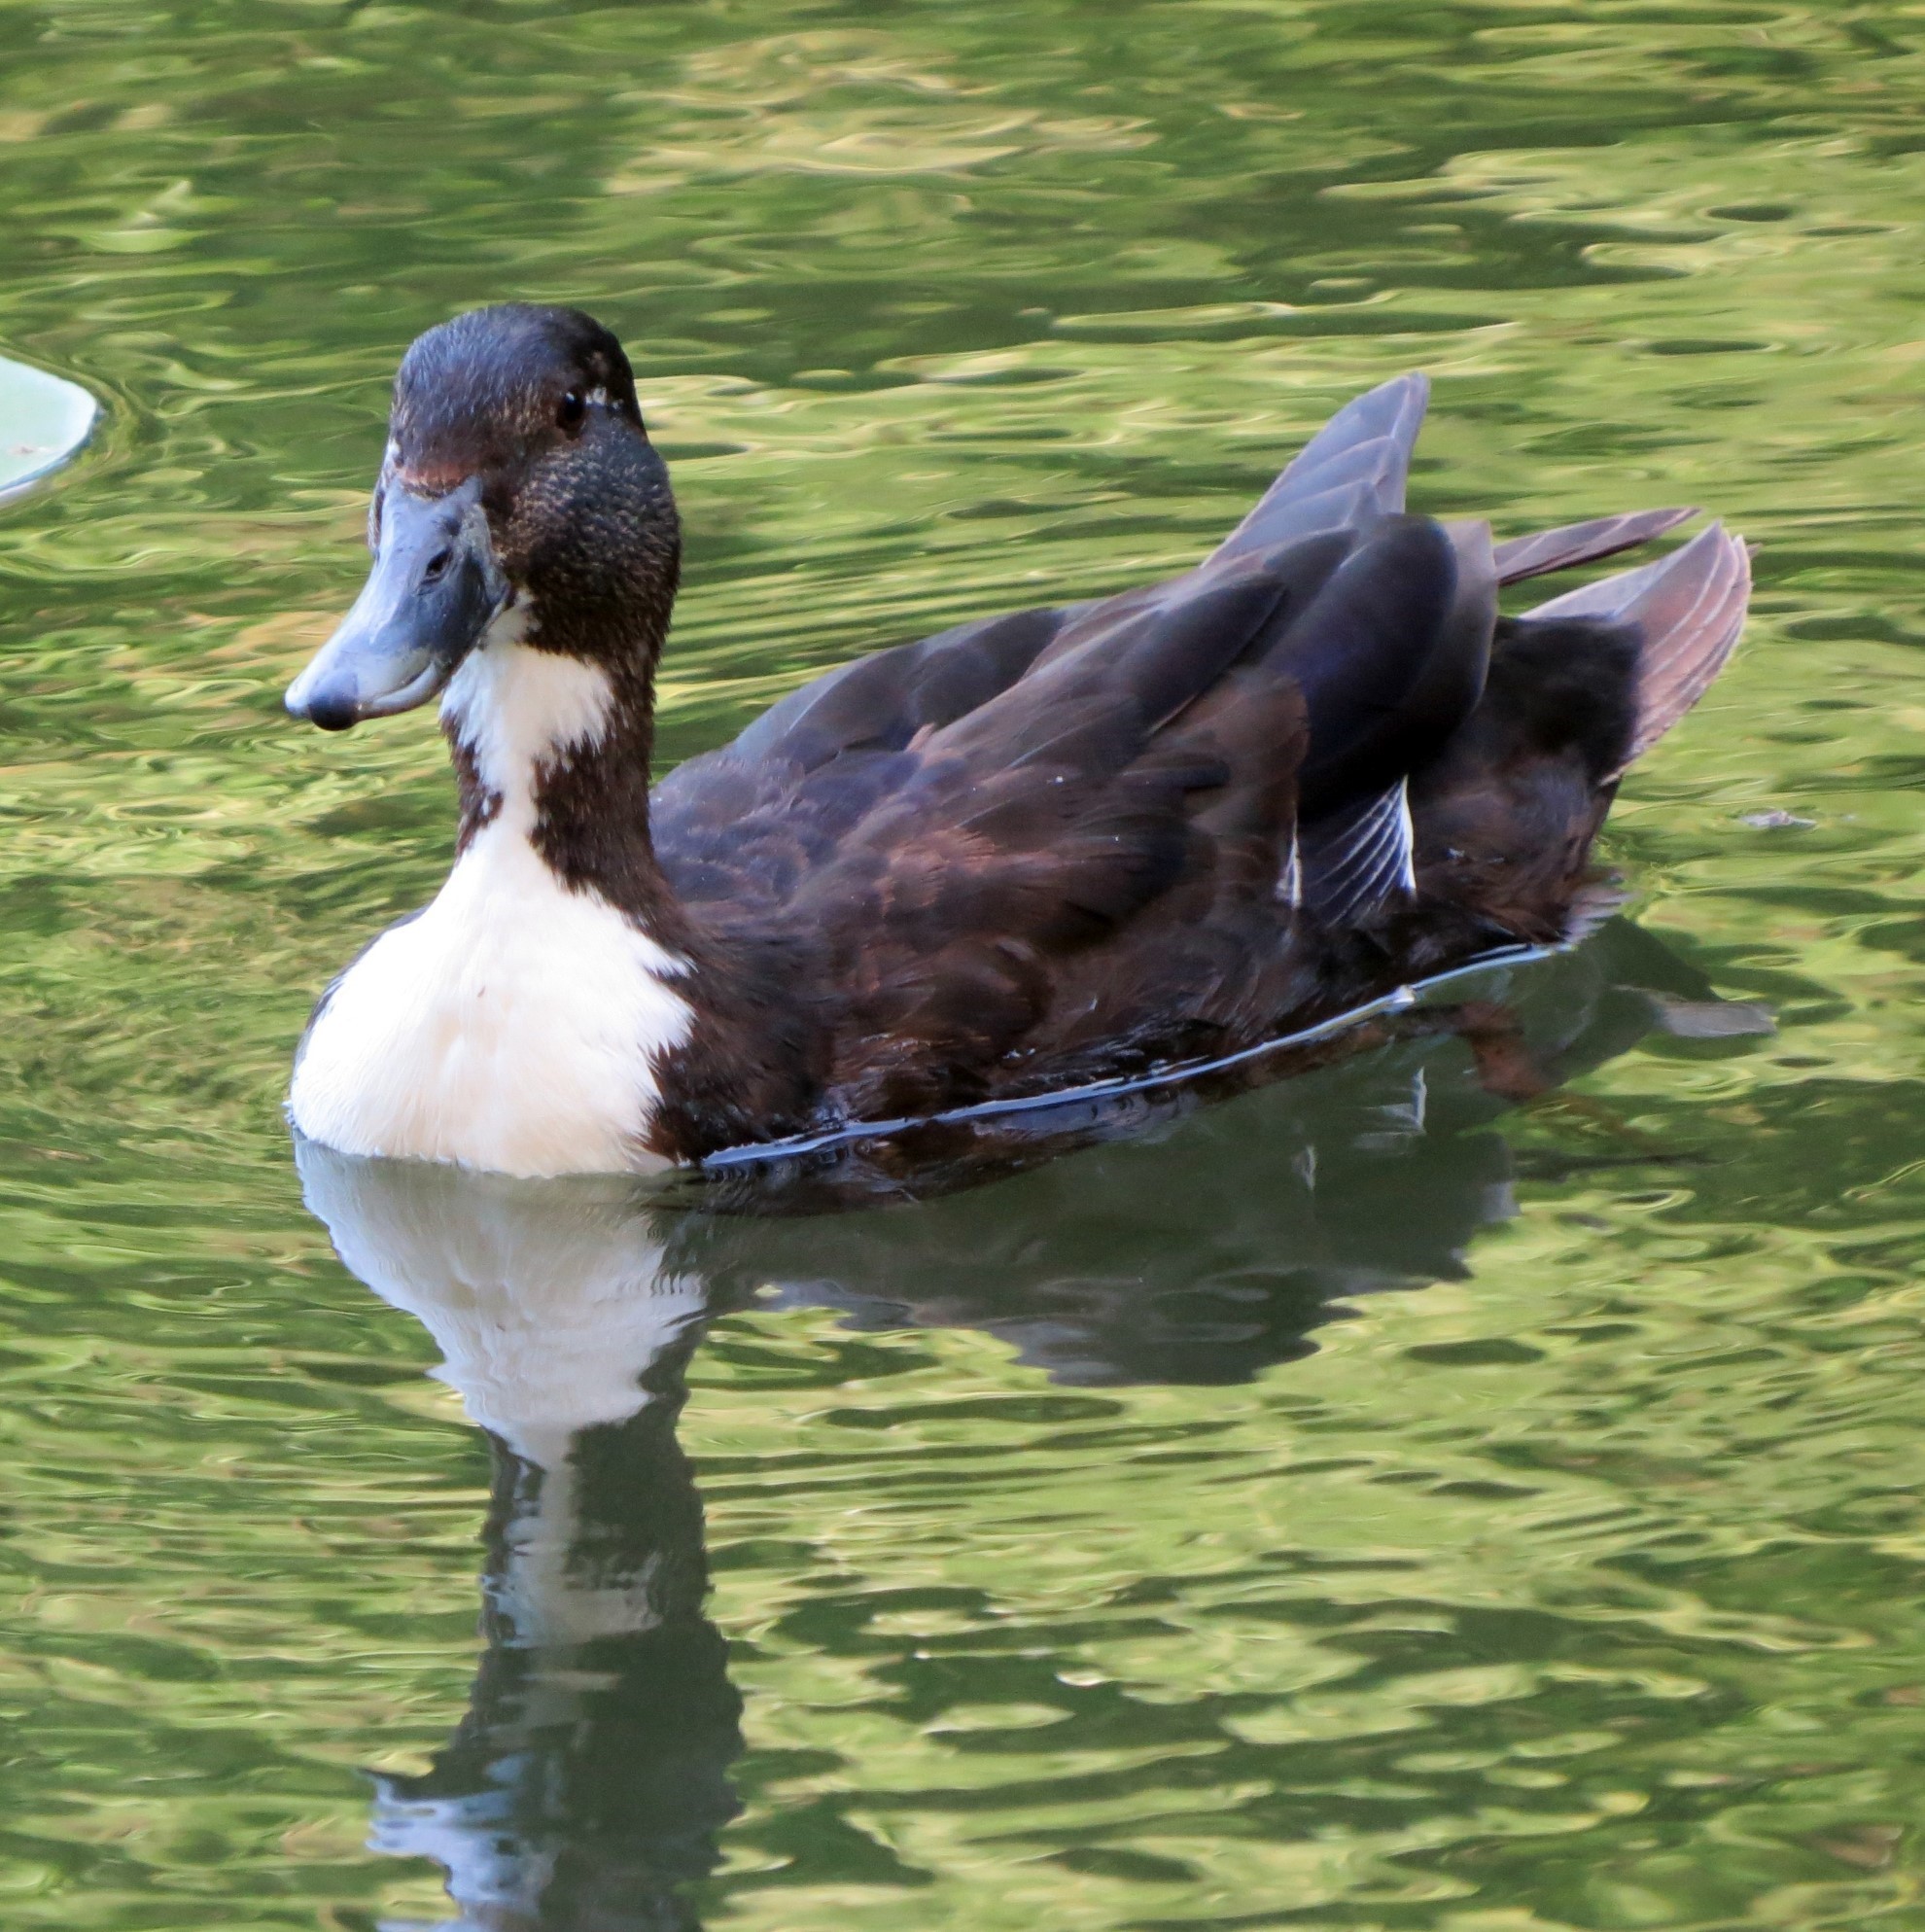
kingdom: Animalia
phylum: Chordata
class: Aves
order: Anseriformes
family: Anatidae
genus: Anas
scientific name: Anas platyrhynchos
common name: Mallard
